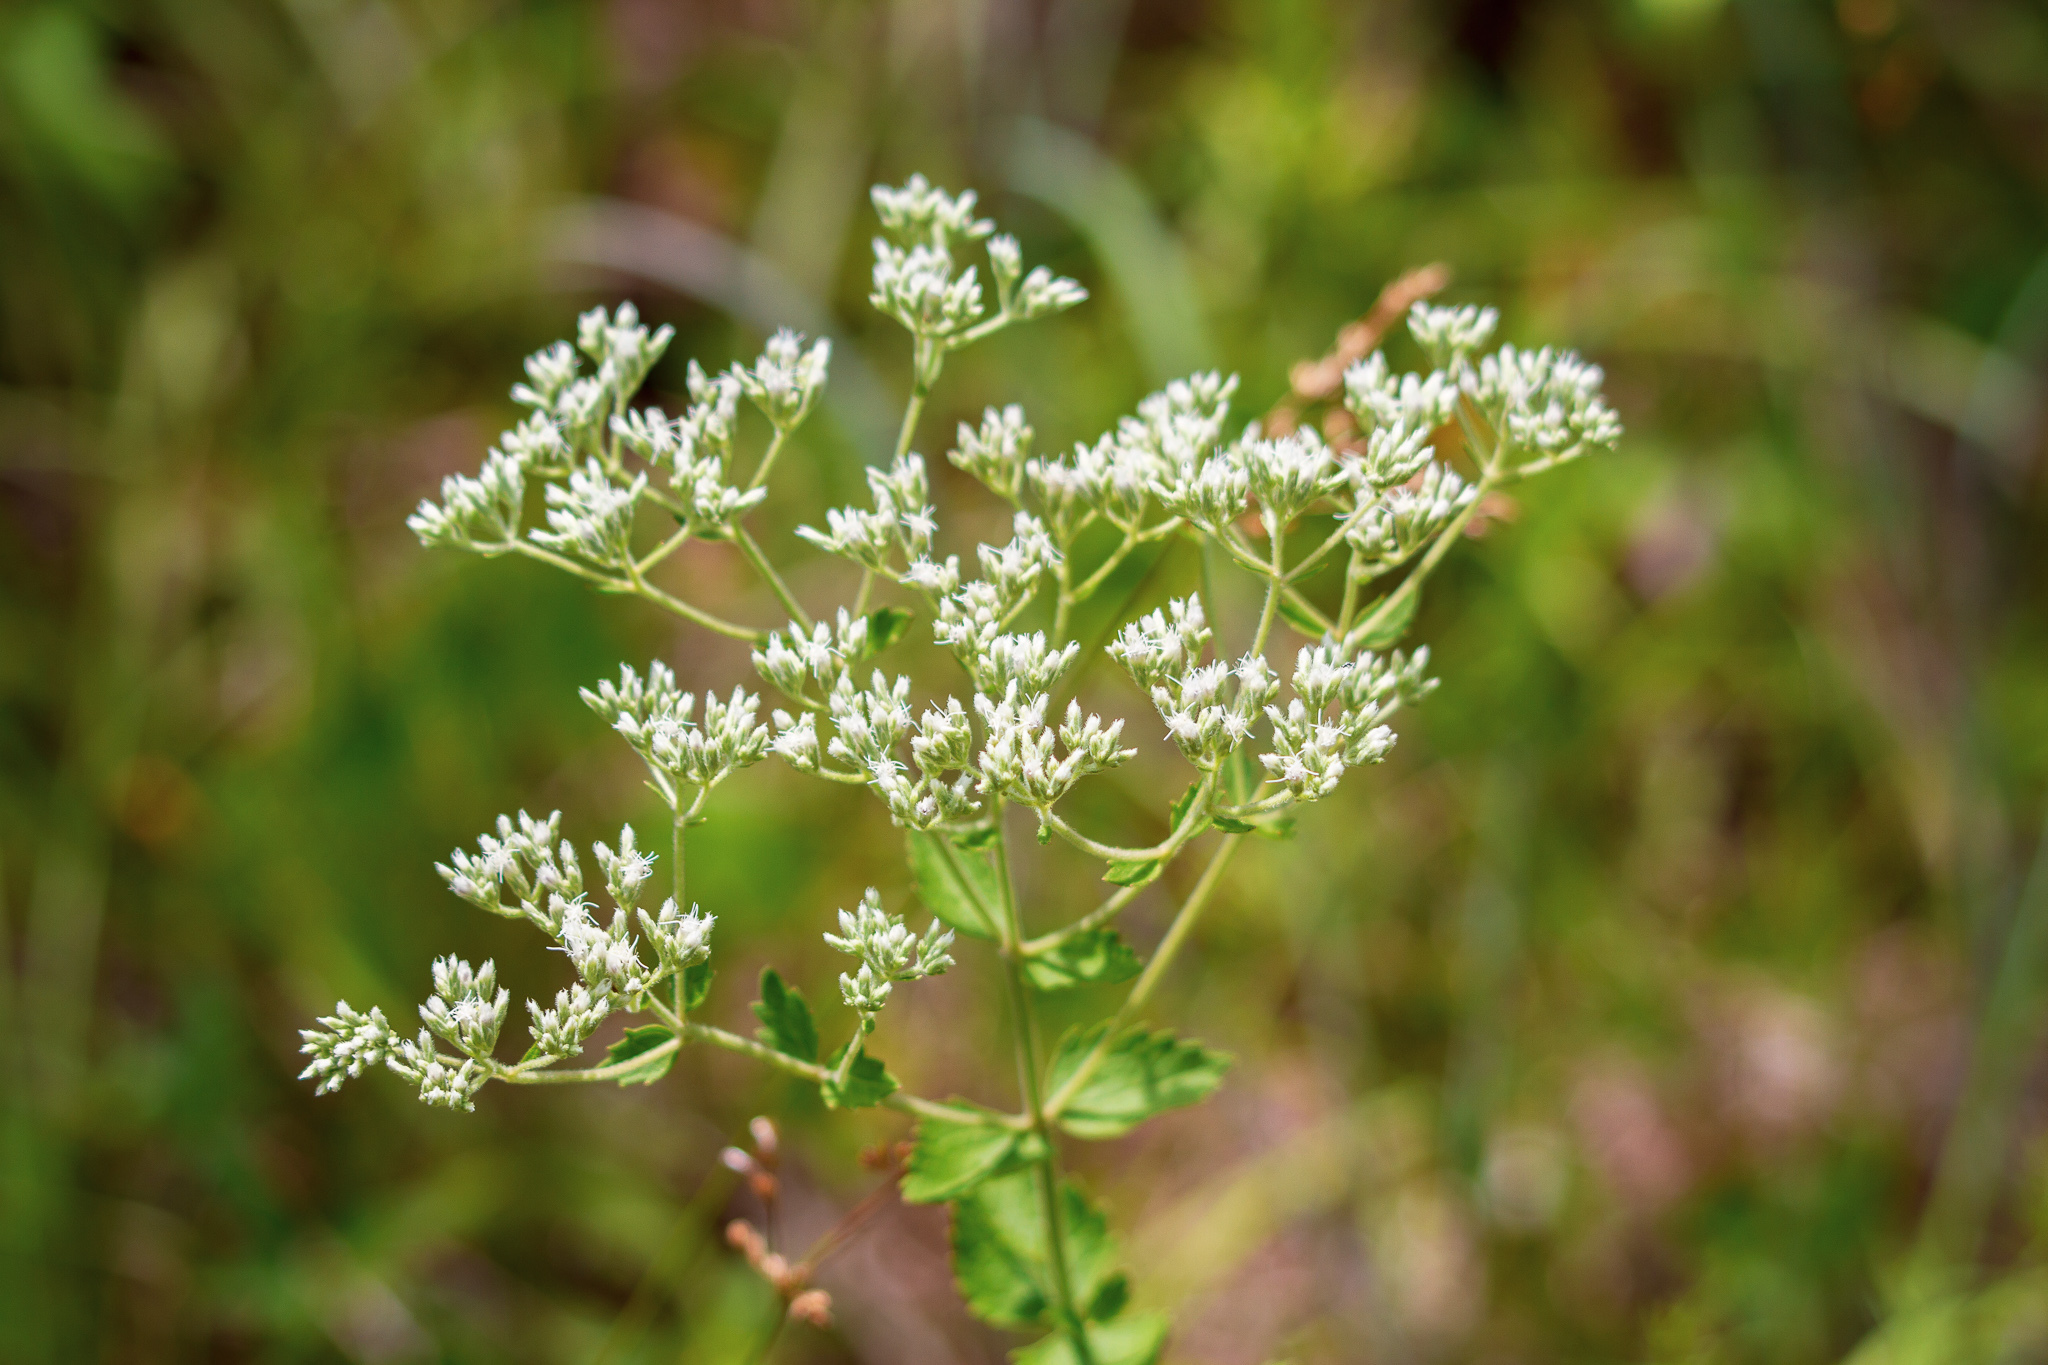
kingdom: Plantae
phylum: Tracheophyta
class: Magnoliopsida
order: Asterales
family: Asteraceae
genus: Eupatorium
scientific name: Eupatorium rotundifolium
